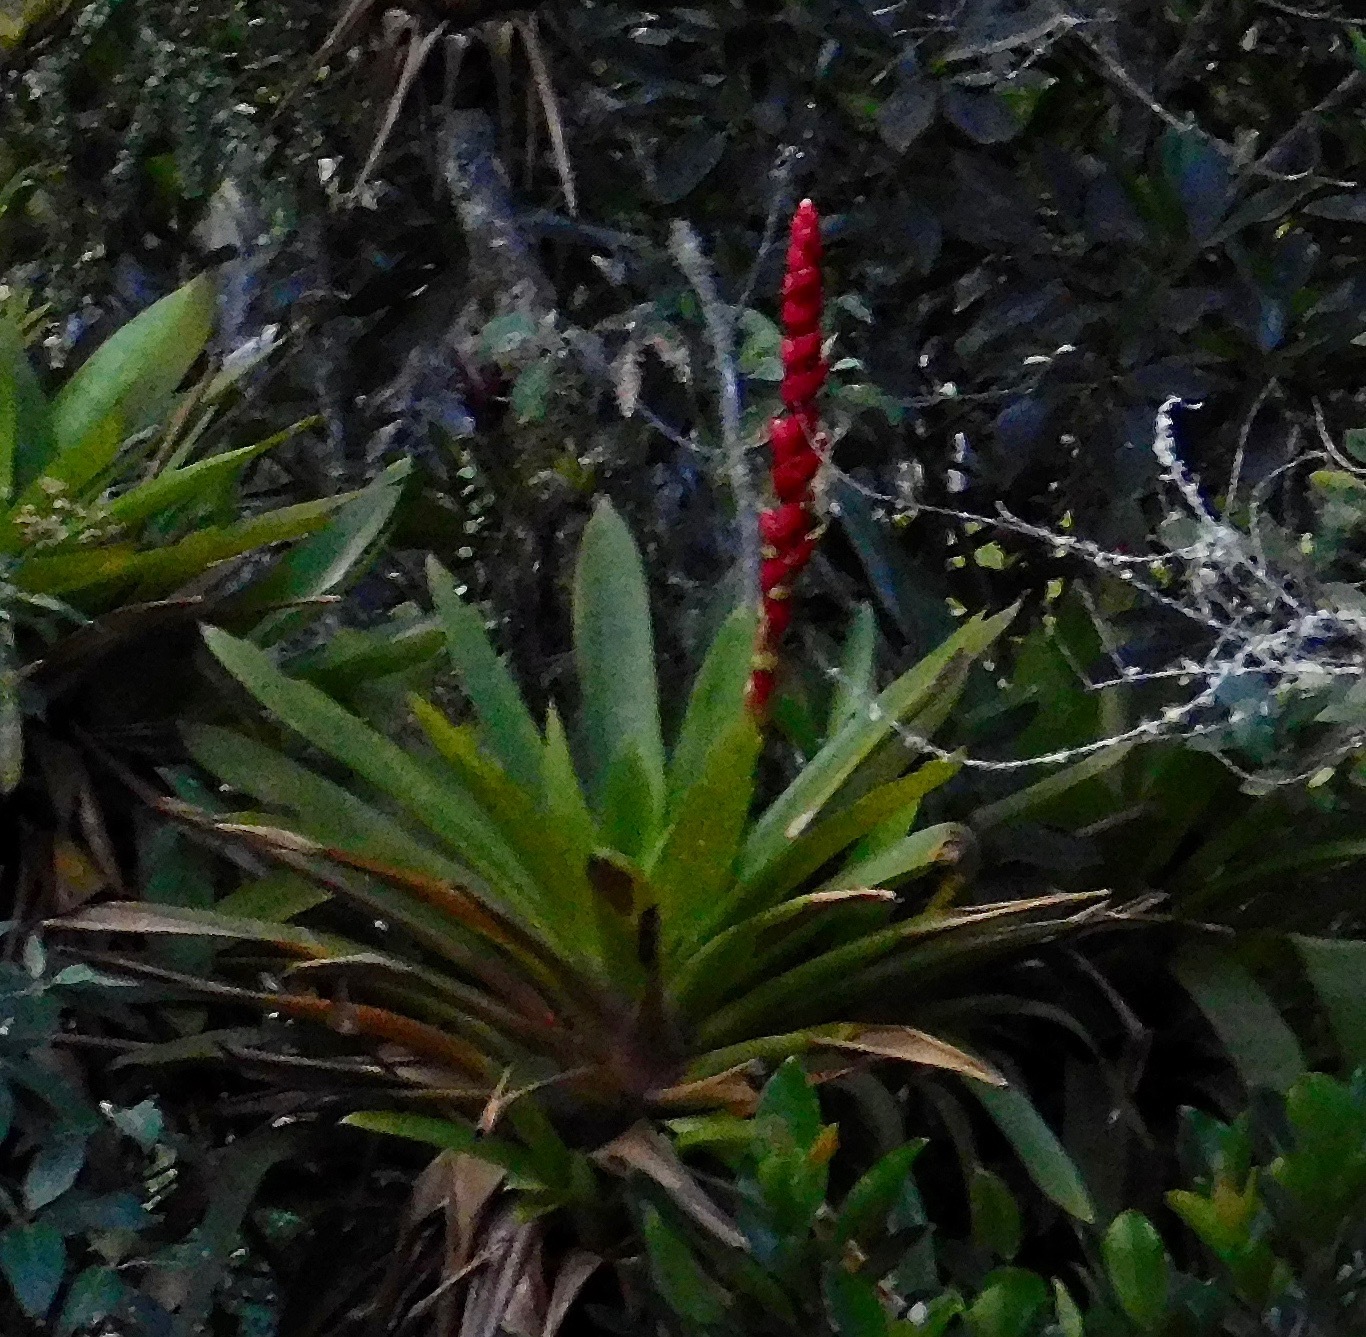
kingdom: Plantae
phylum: Tracheophyta
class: Liliopsida
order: Poales
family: Bromeliaceae
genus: Cipuropsis
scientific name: Cipuropsis capituligera
